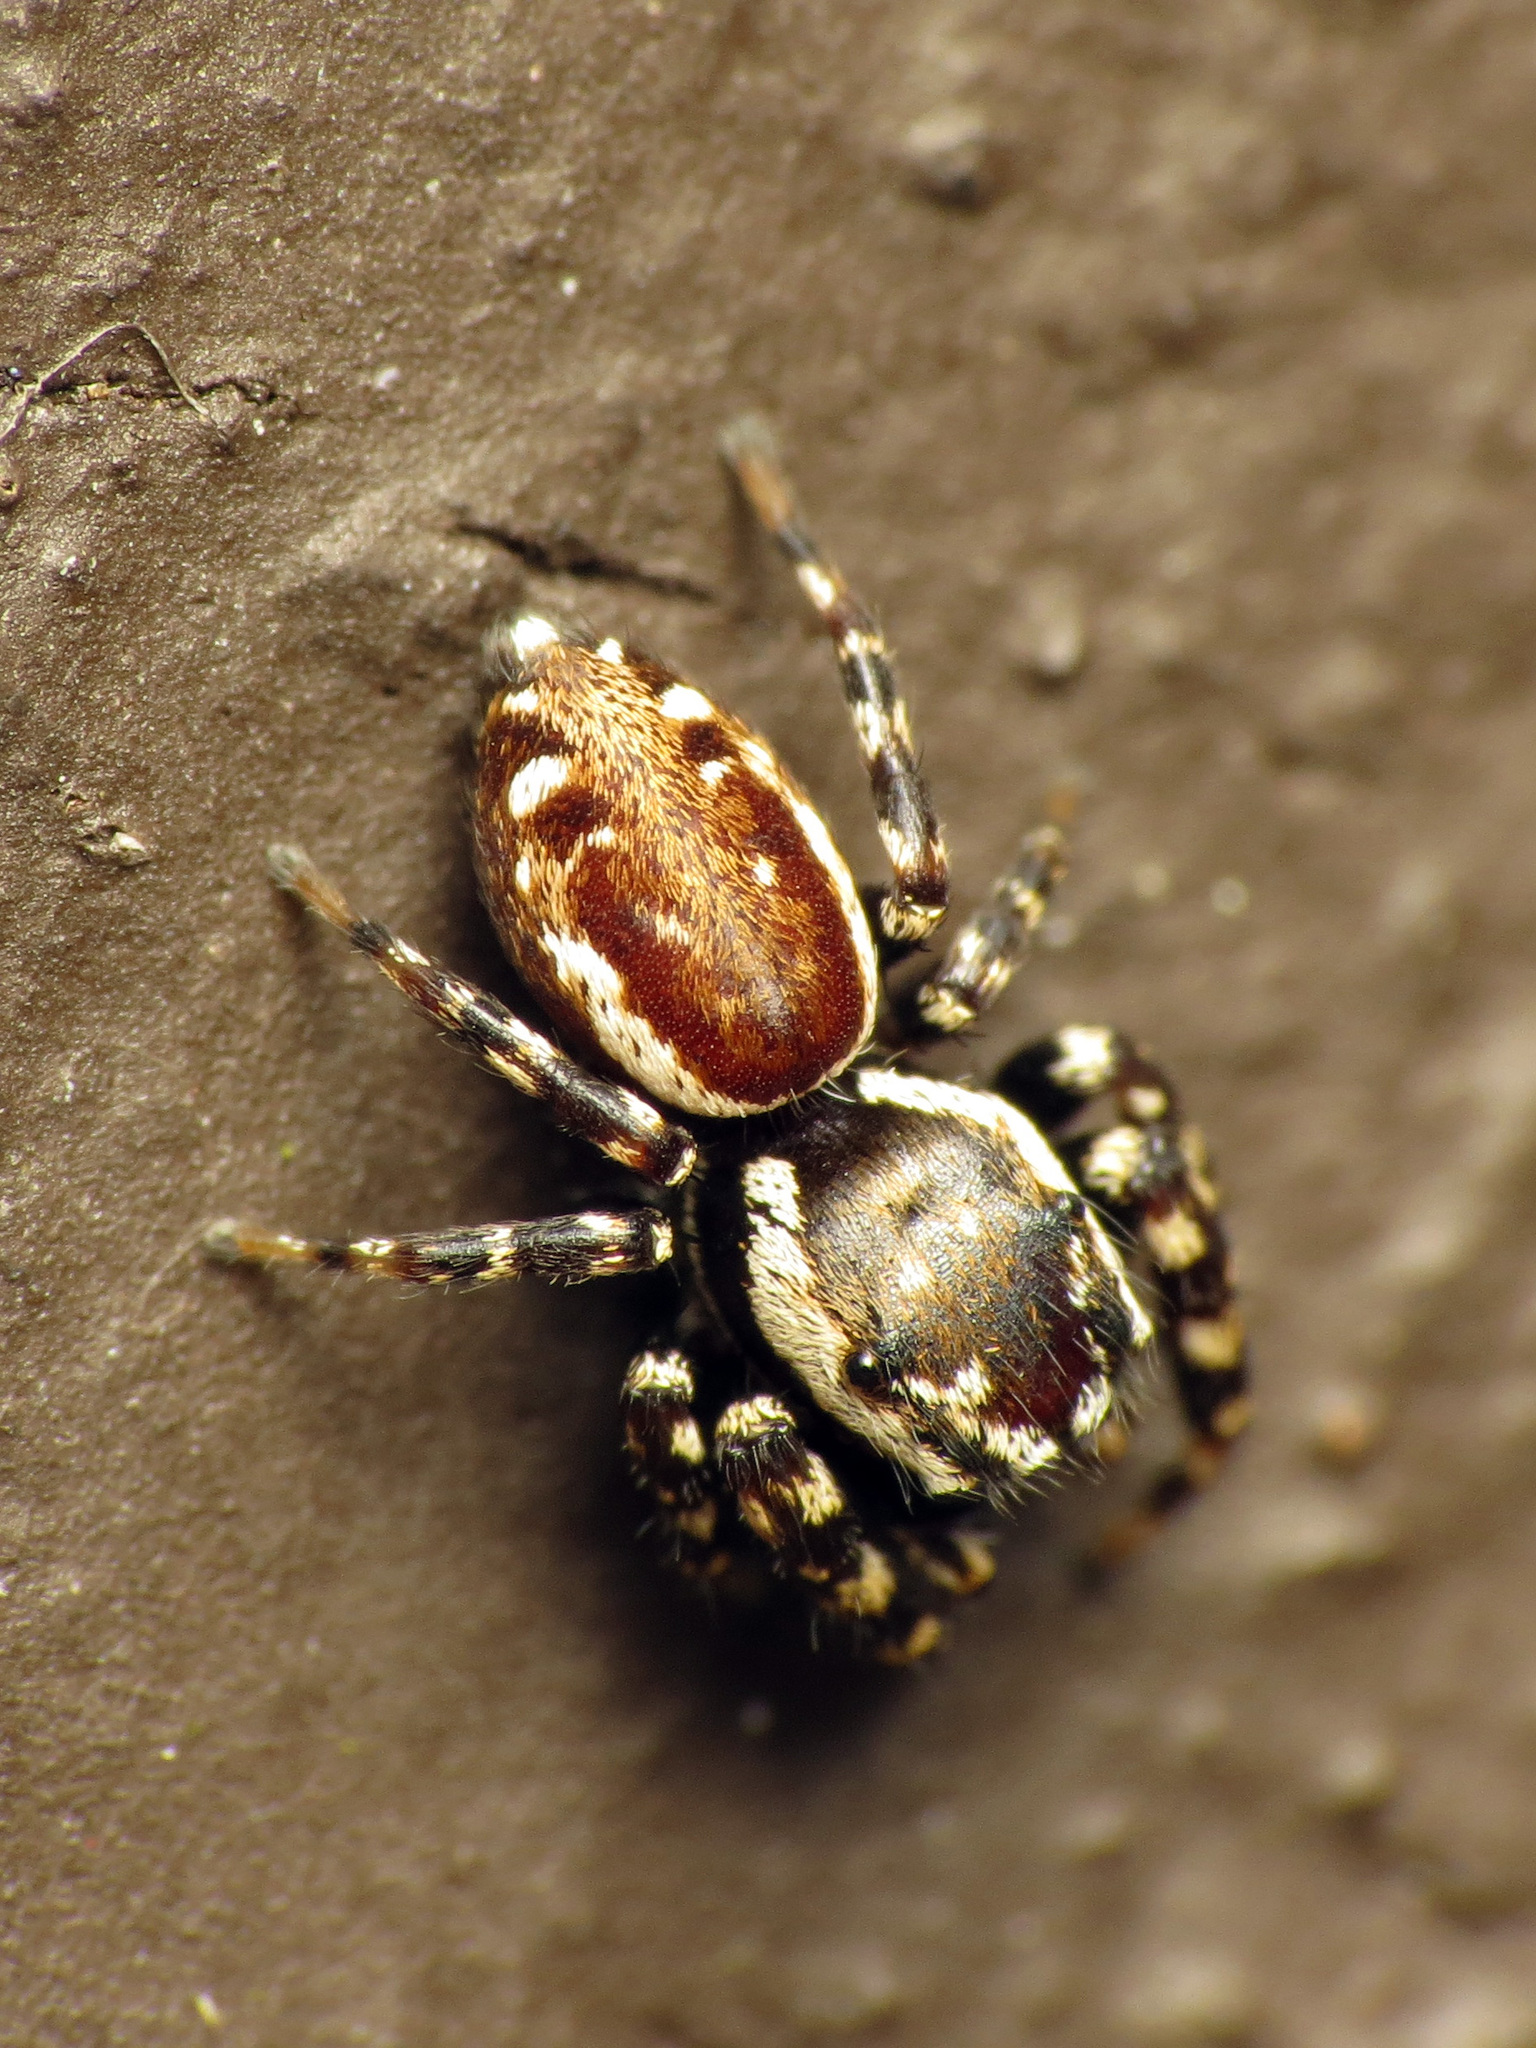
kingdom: Animalia
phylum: Arthropoda
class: Arachnida
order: Araneae
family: Salticidae
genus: Pelegrina
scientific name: Pelegrina galathea
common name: Jumping spiders
